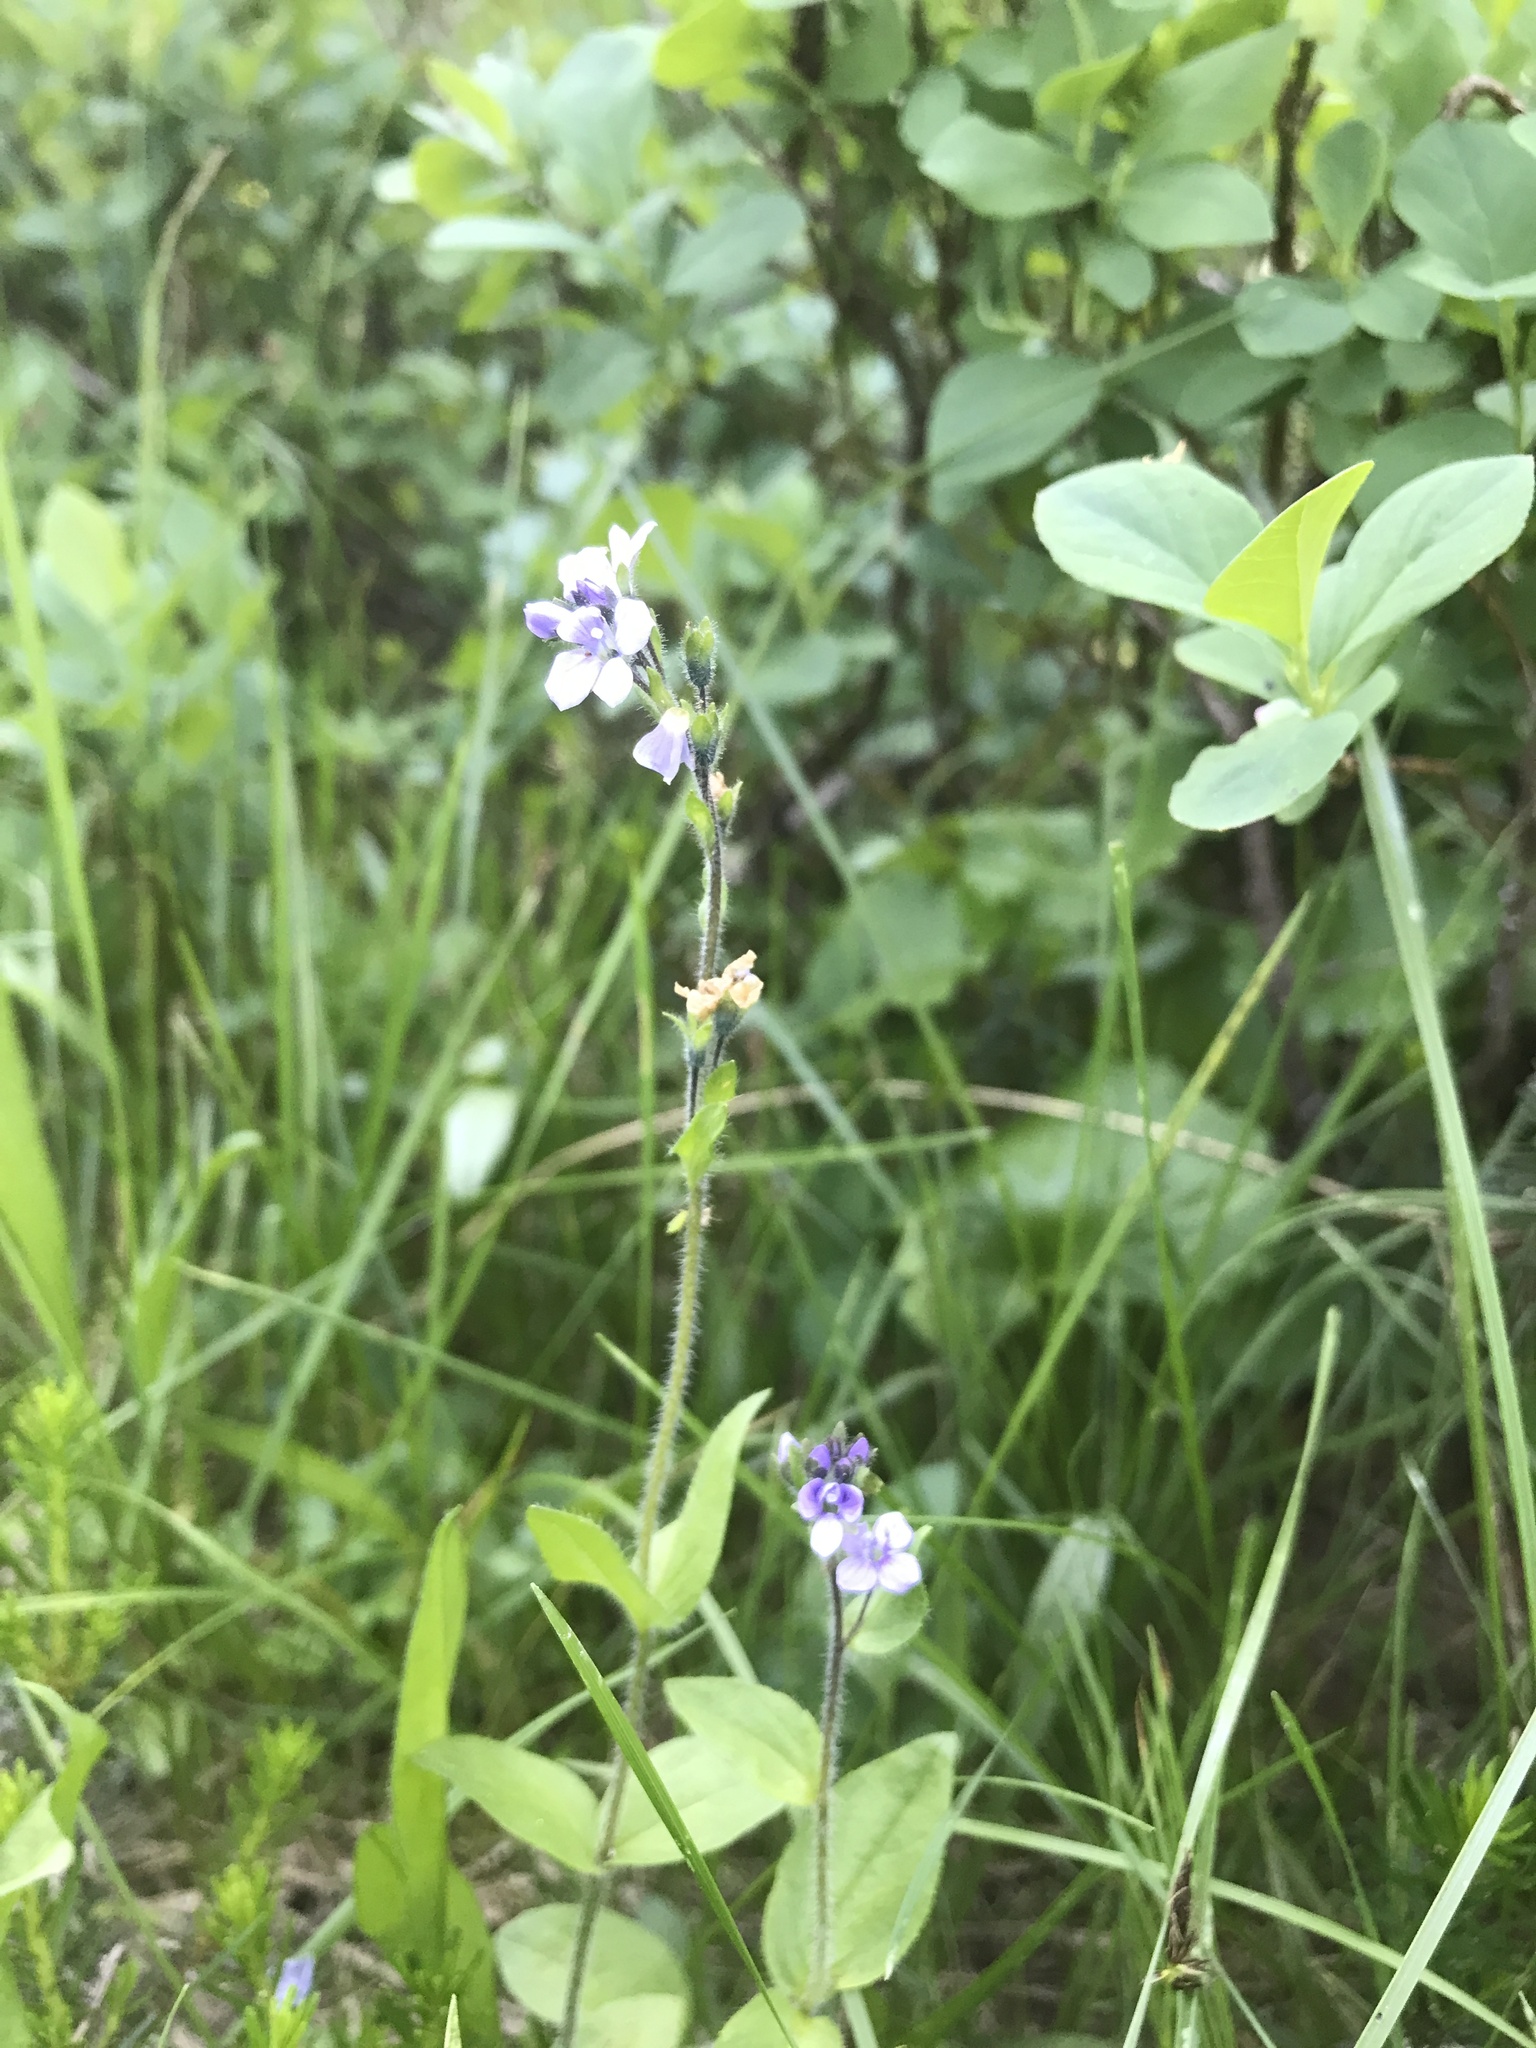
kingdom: Plantae
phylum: Tracheophyta
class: Magnoliopsida
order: Lamiales
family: Plantaginaceae
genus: Veronica
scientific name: Veronica wormskjoldii
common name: American alpine speedwell
